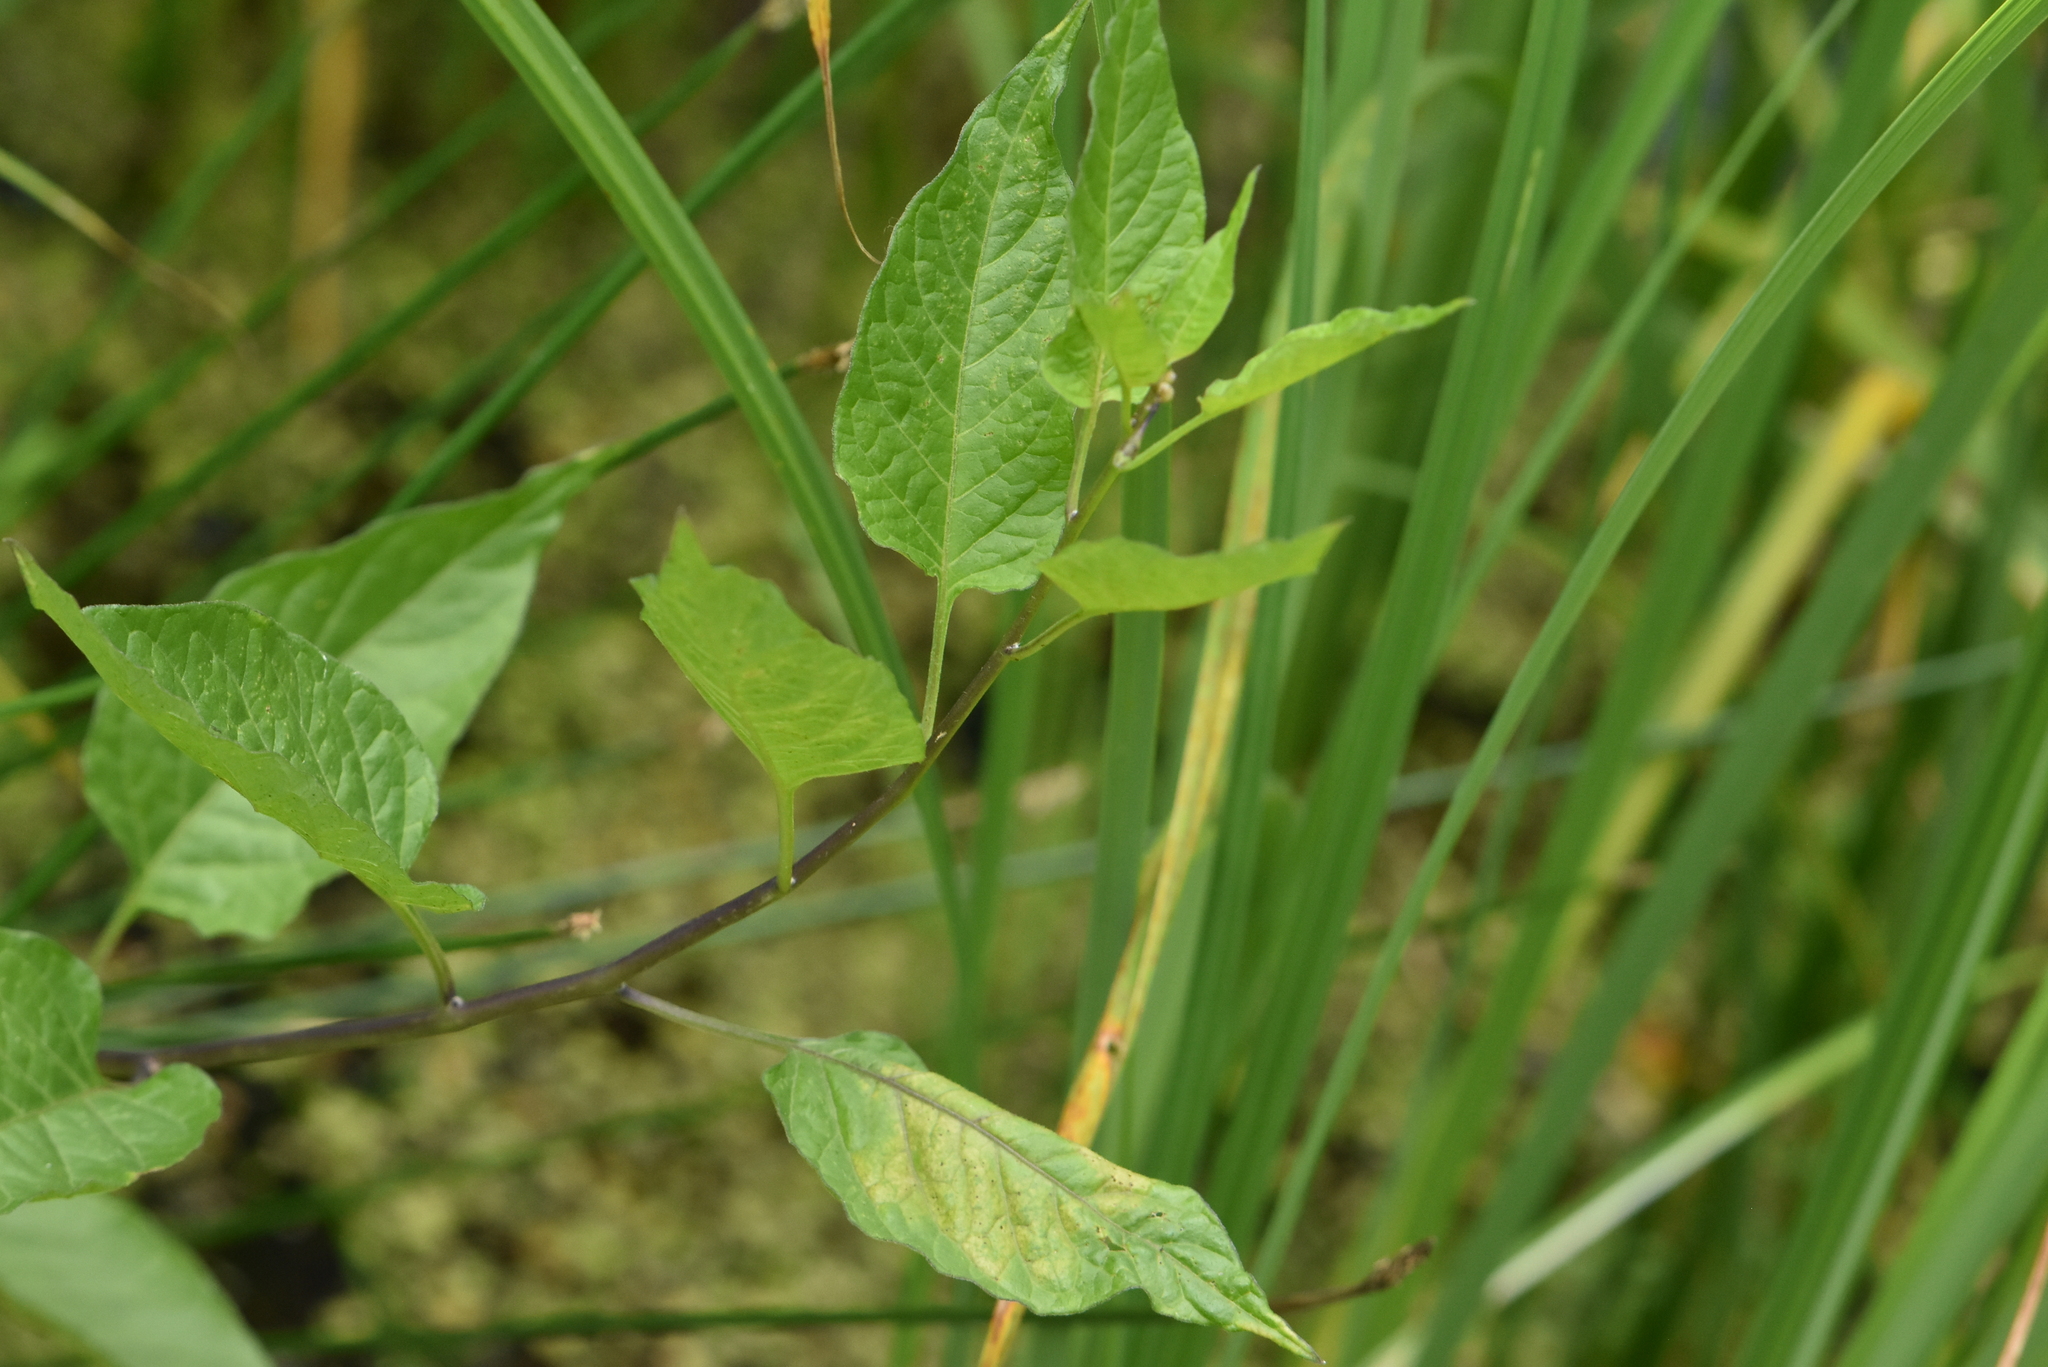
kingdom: Plantae
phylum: Tracheophyta
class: Magnoliopsida
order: Solanales
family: Solanaceae
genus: Solanum
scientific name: Solanum dulcamara
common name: Climbing nightshade
